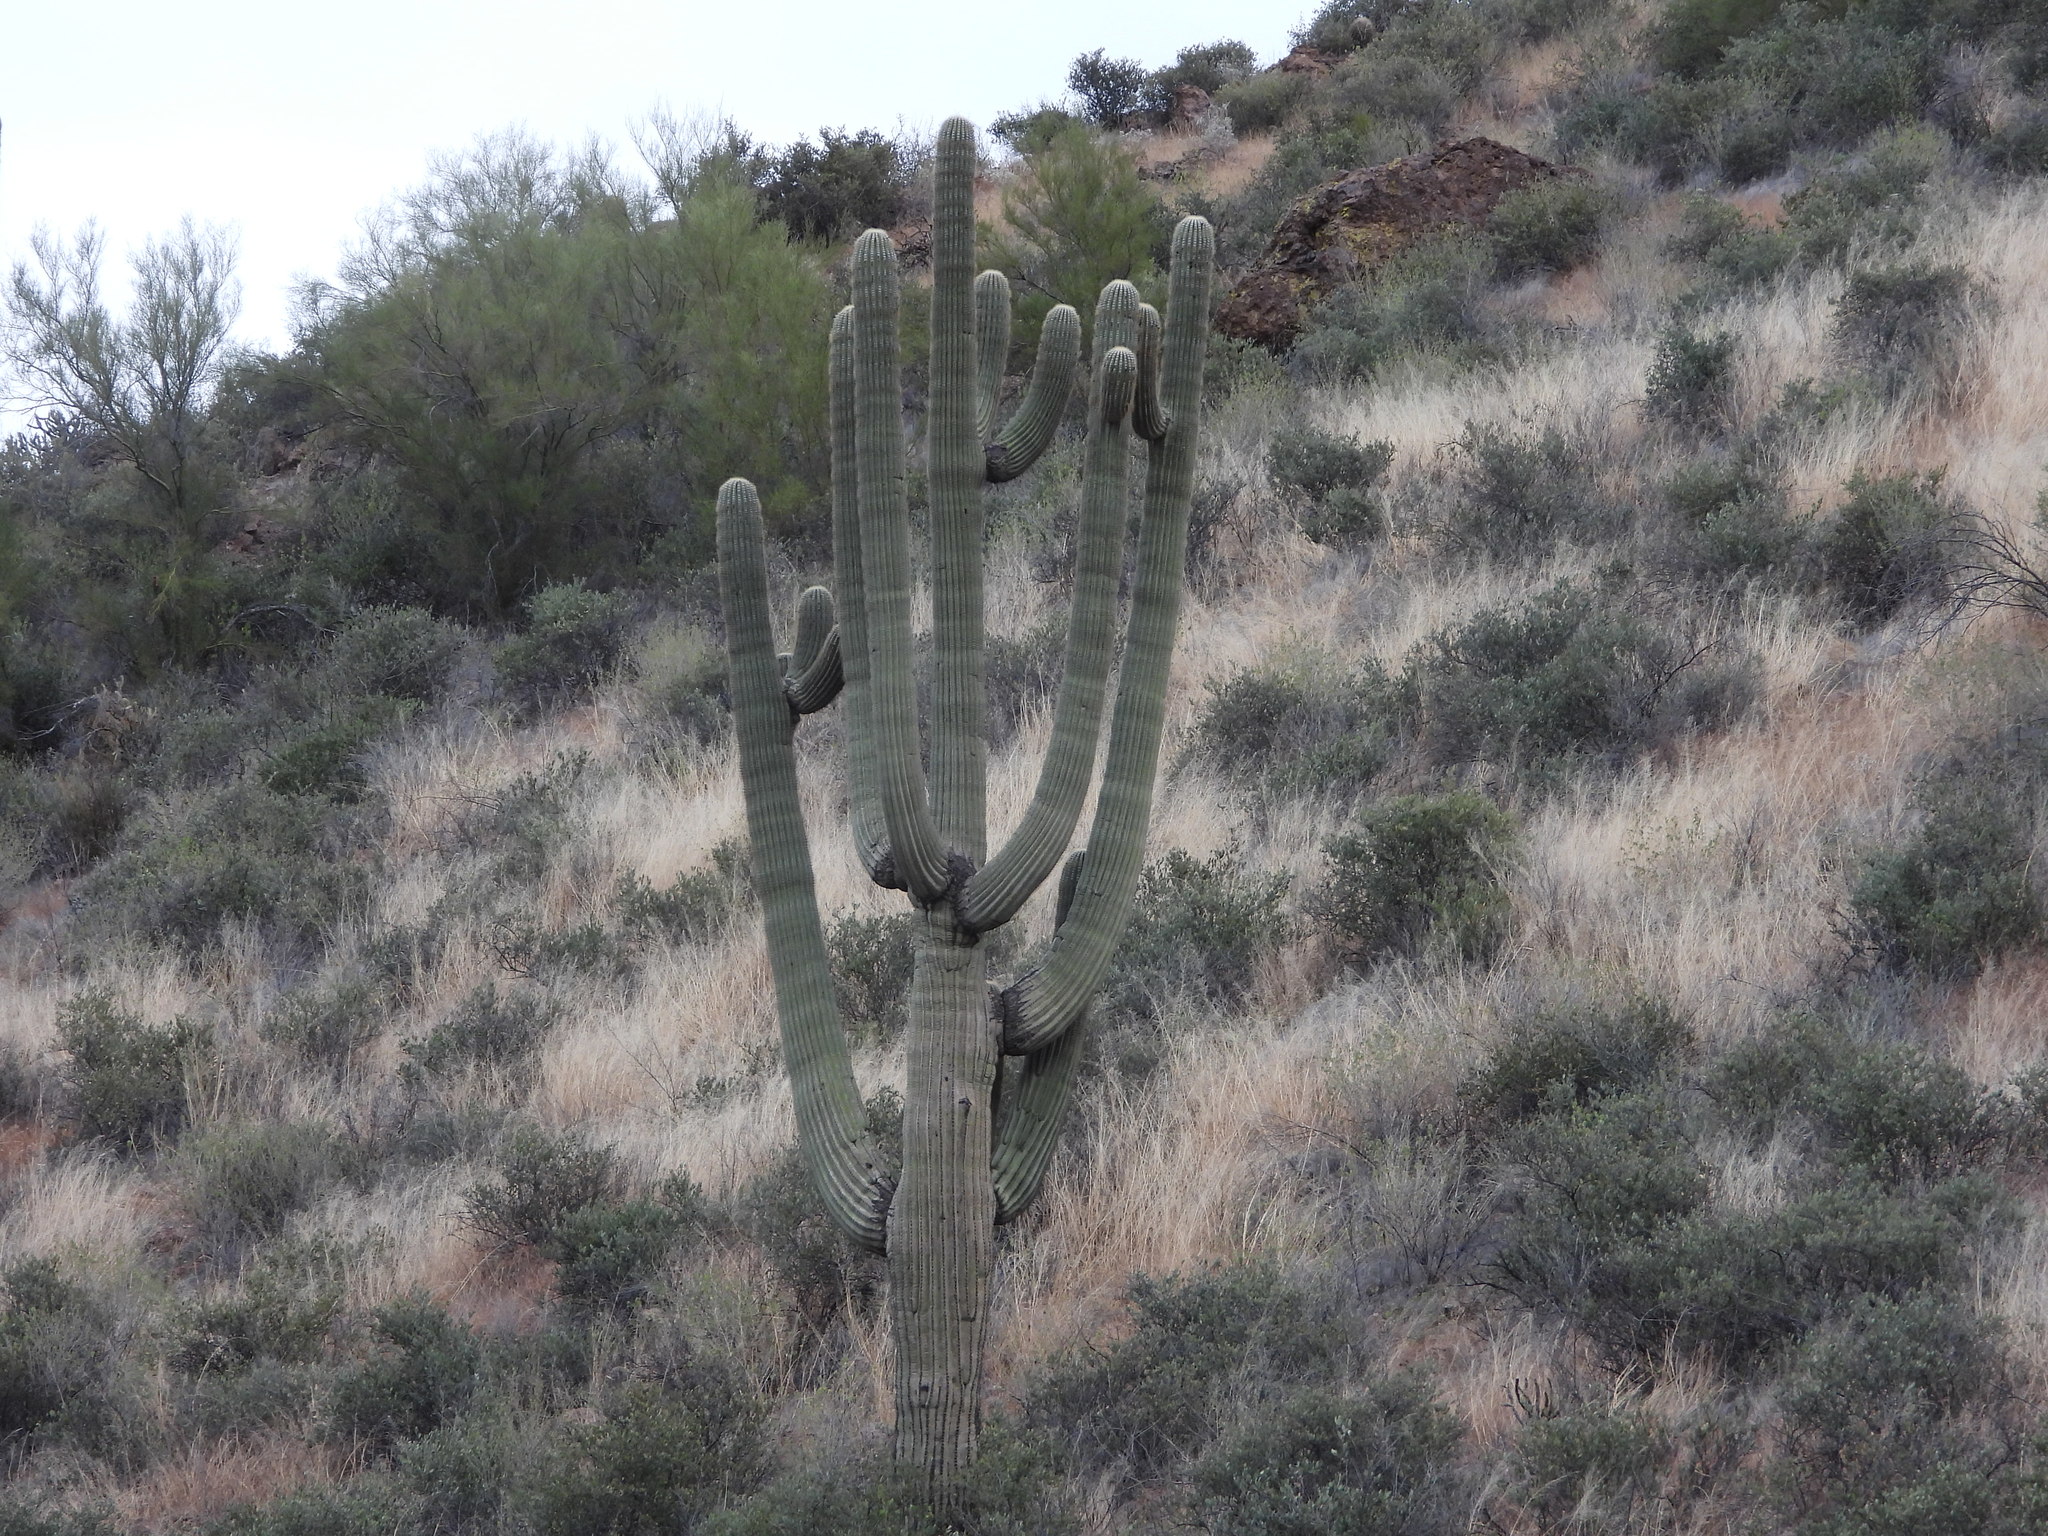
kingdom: Plantae
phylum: Tracheophyta
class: Magnoliopsida
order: Caryophyllales
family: Cactaceae
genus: Carnegiea
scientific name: Carnegiea gigantea
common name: Saguaro
